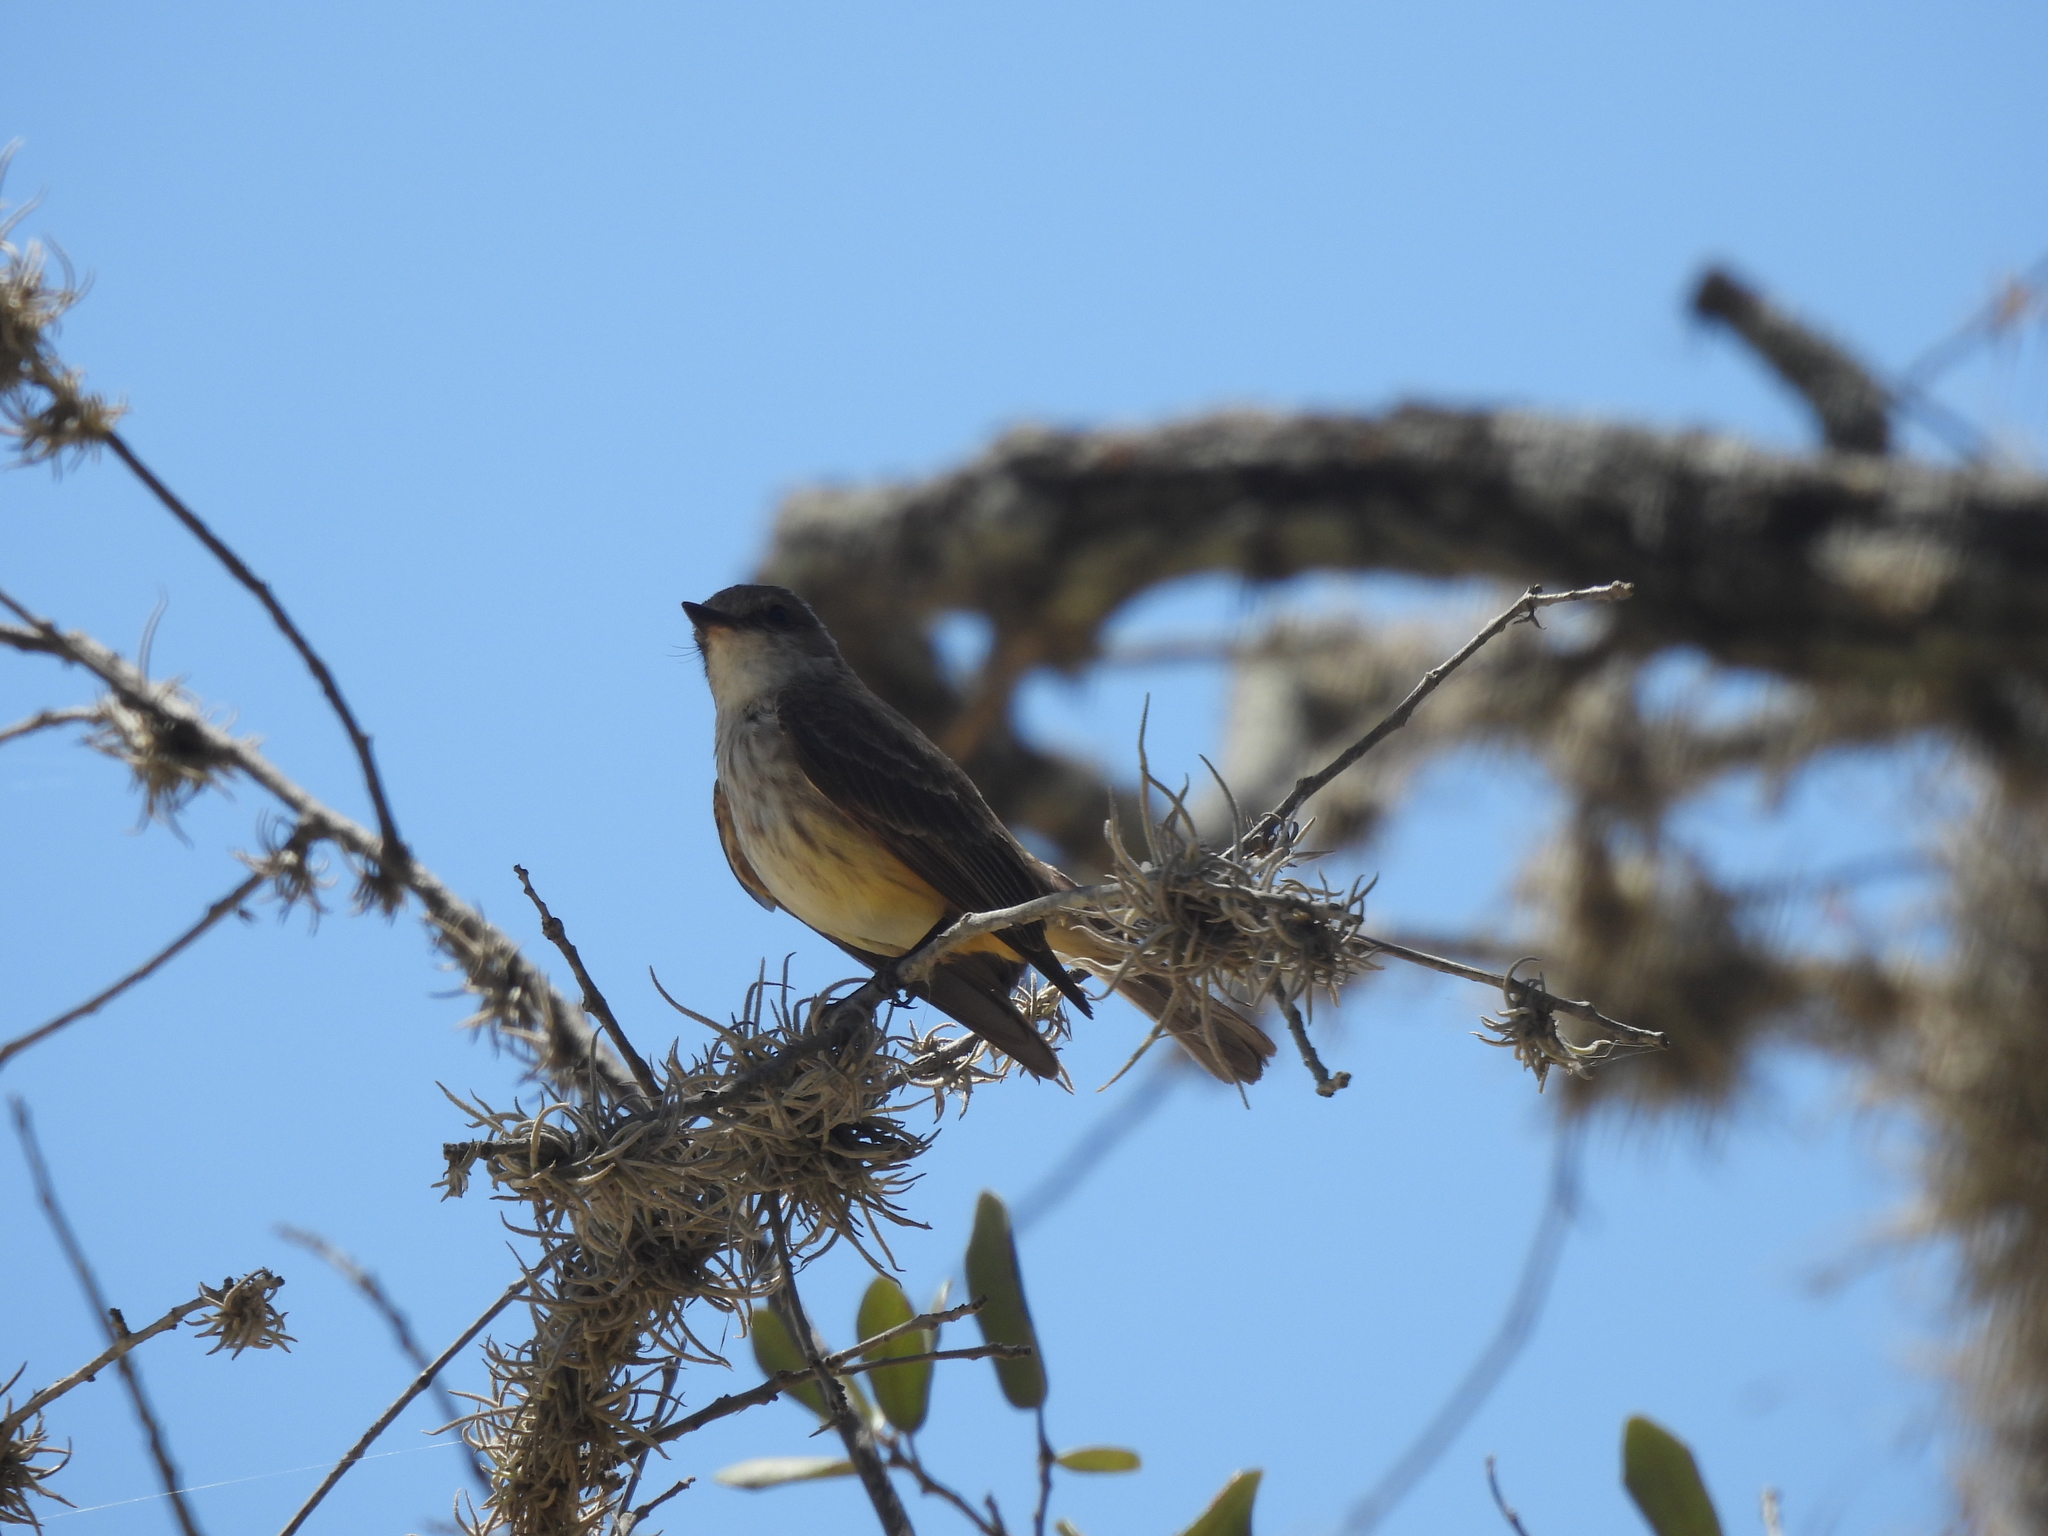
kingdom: Animalia
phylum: Chordata
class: Aves
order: Passeriformes
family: Tyrannidae
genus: Pyrocephalus
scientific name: Pyrocephalus rubinus
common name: Vermilion flycatcher
